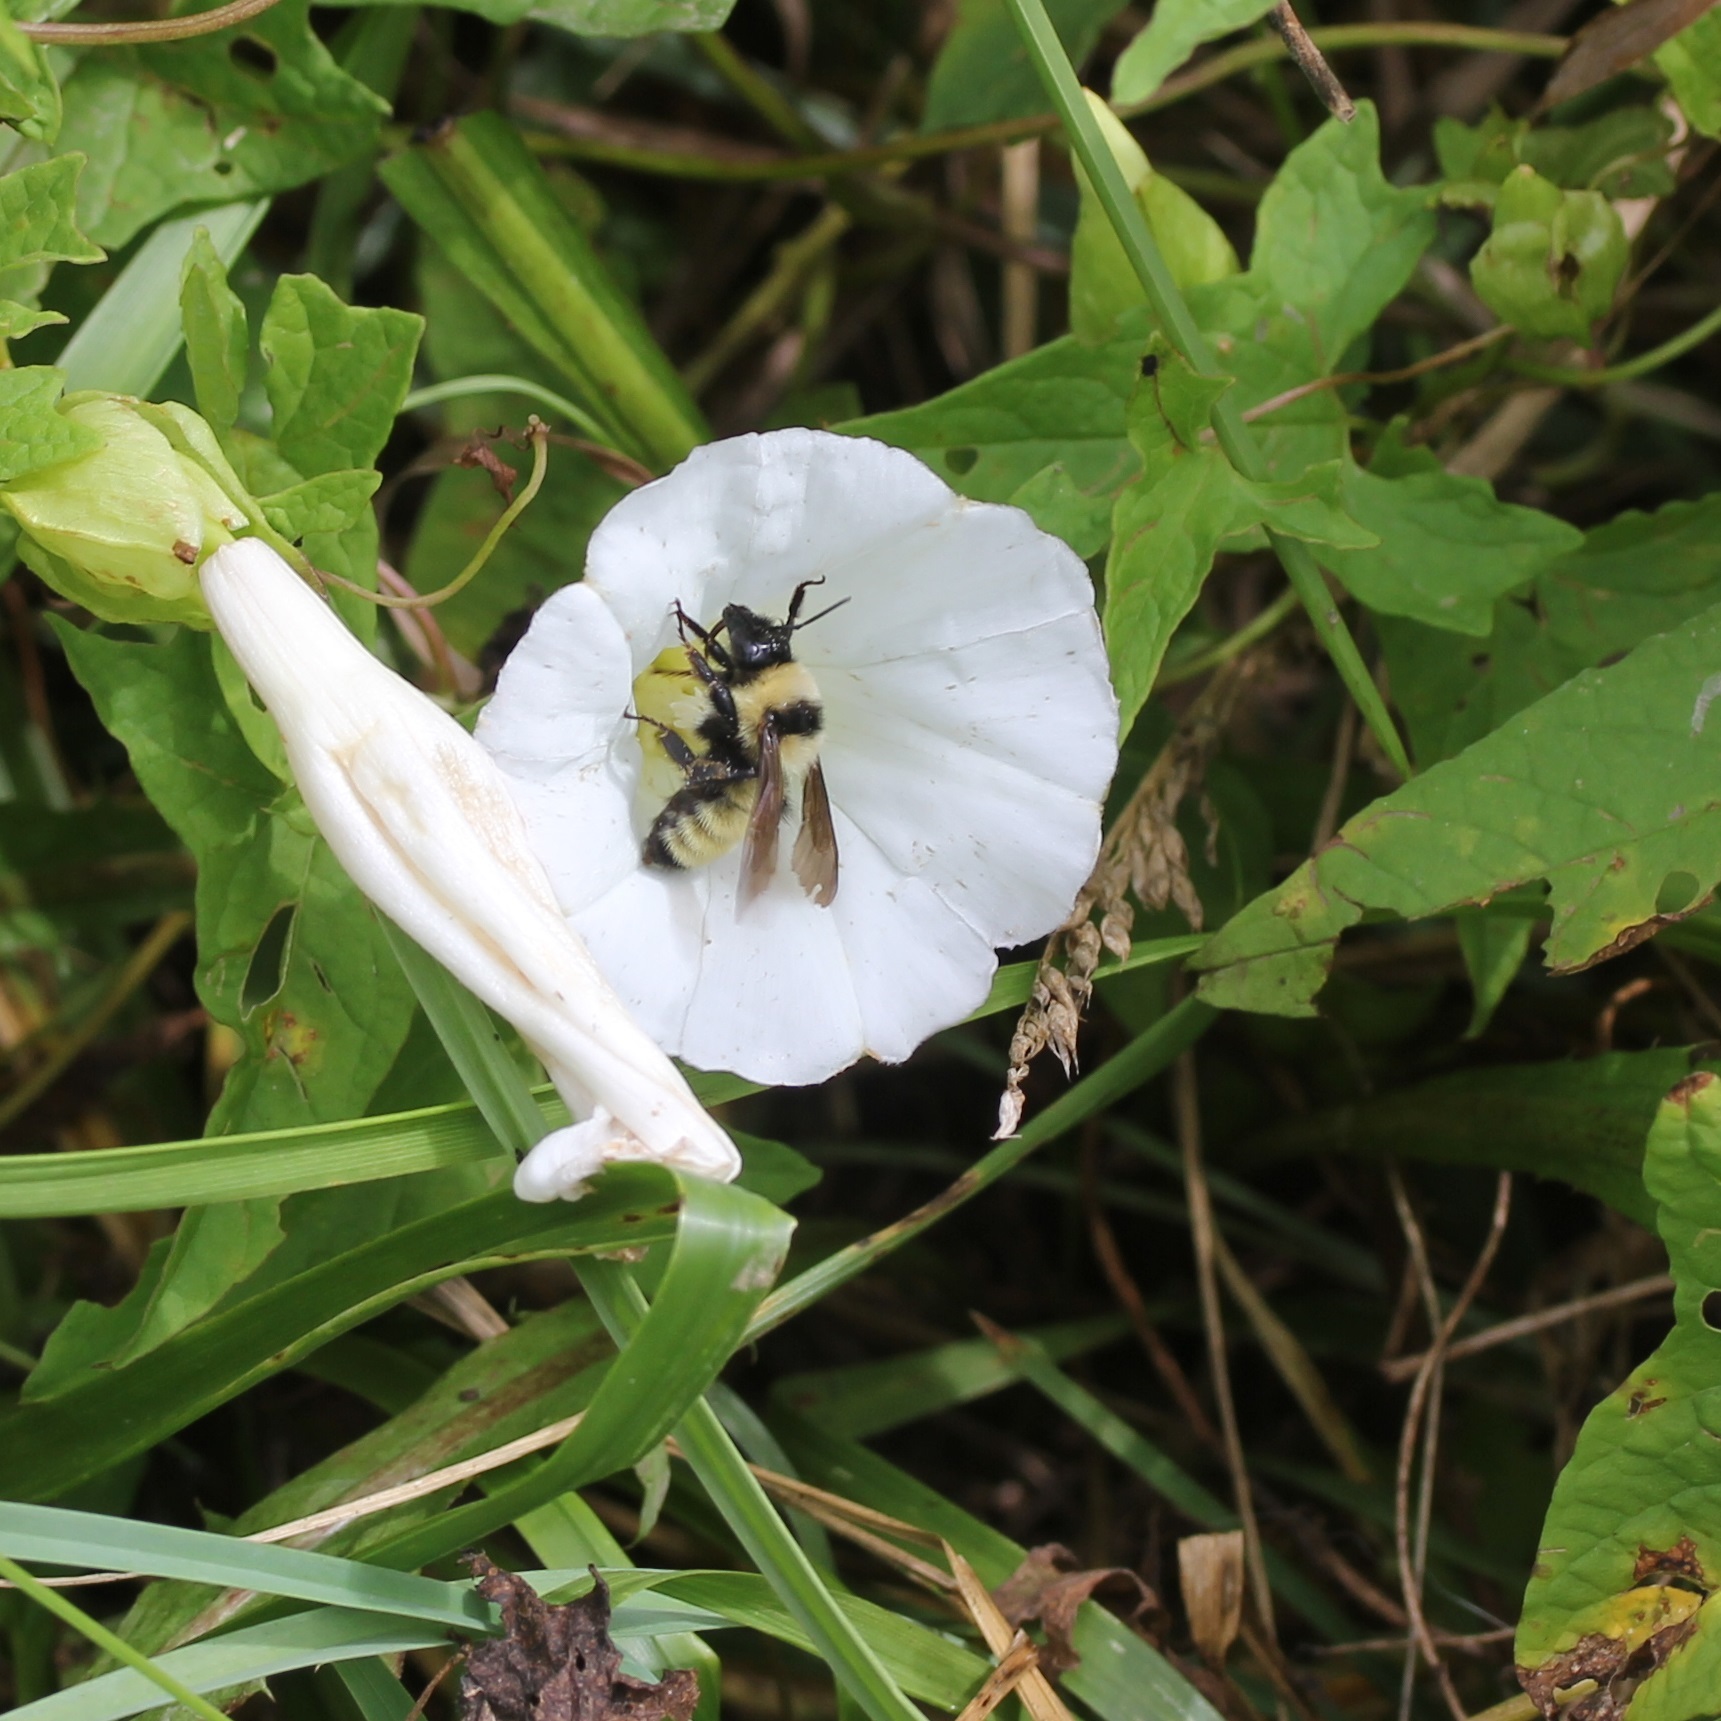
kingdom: Animalia
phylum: Arthropoda
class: Insecta
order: Hymenoptera
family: Apidae
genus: Bombus
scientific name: Bombus fervidus
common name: Yellow bumble bee
